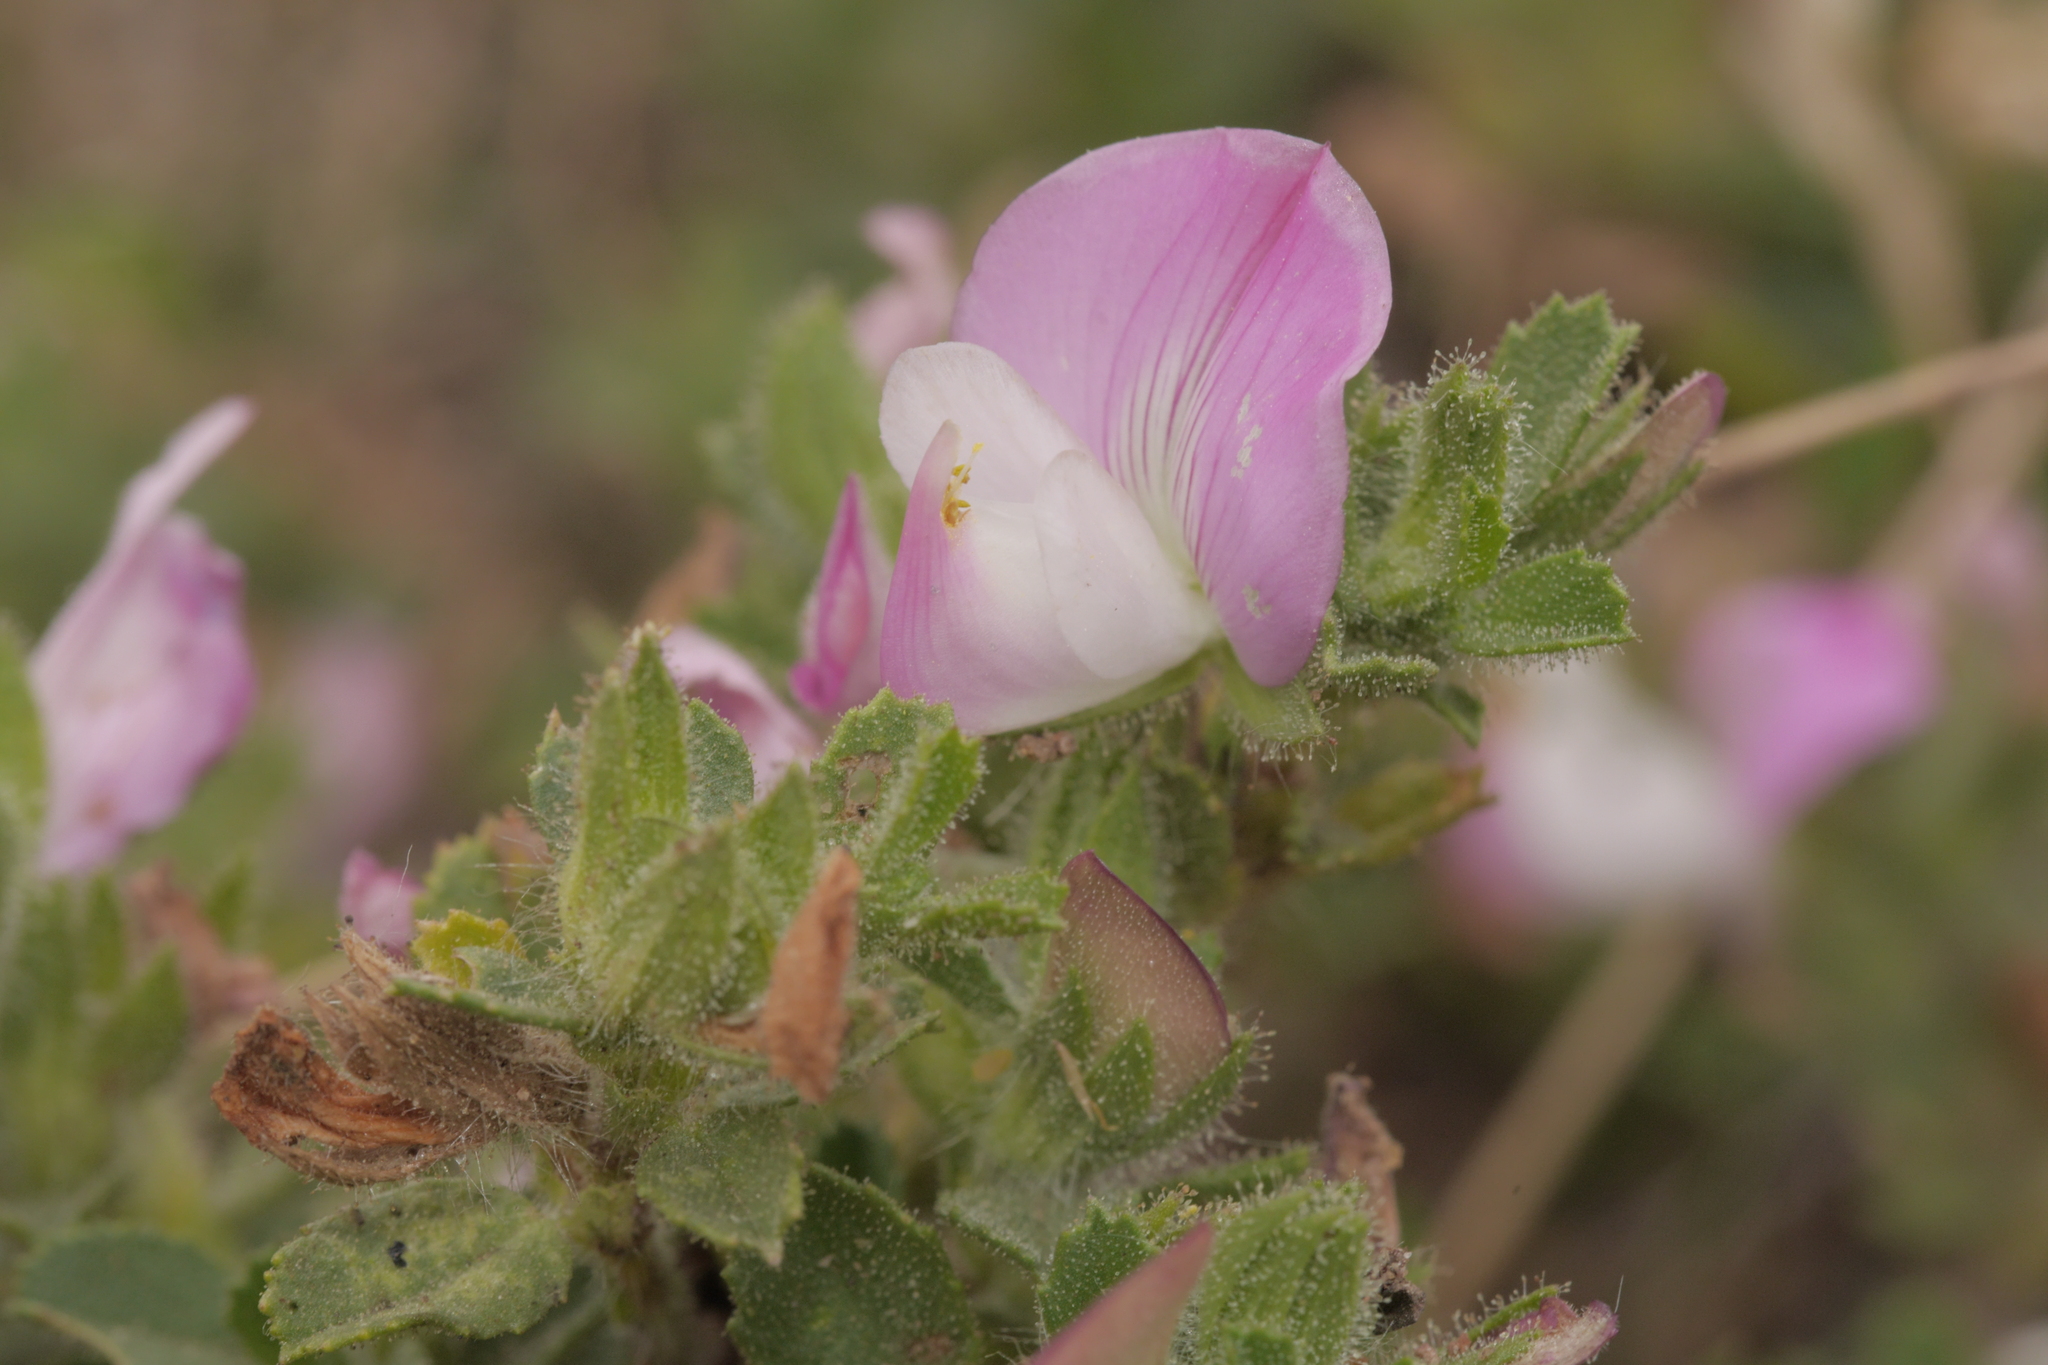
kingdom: Plantae
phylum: Tracheophyta
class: Magnoliopsida
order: Fabales
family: Fabaceae
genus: Ononis
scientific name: Ononis spinosa
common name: Spiny restharrow
